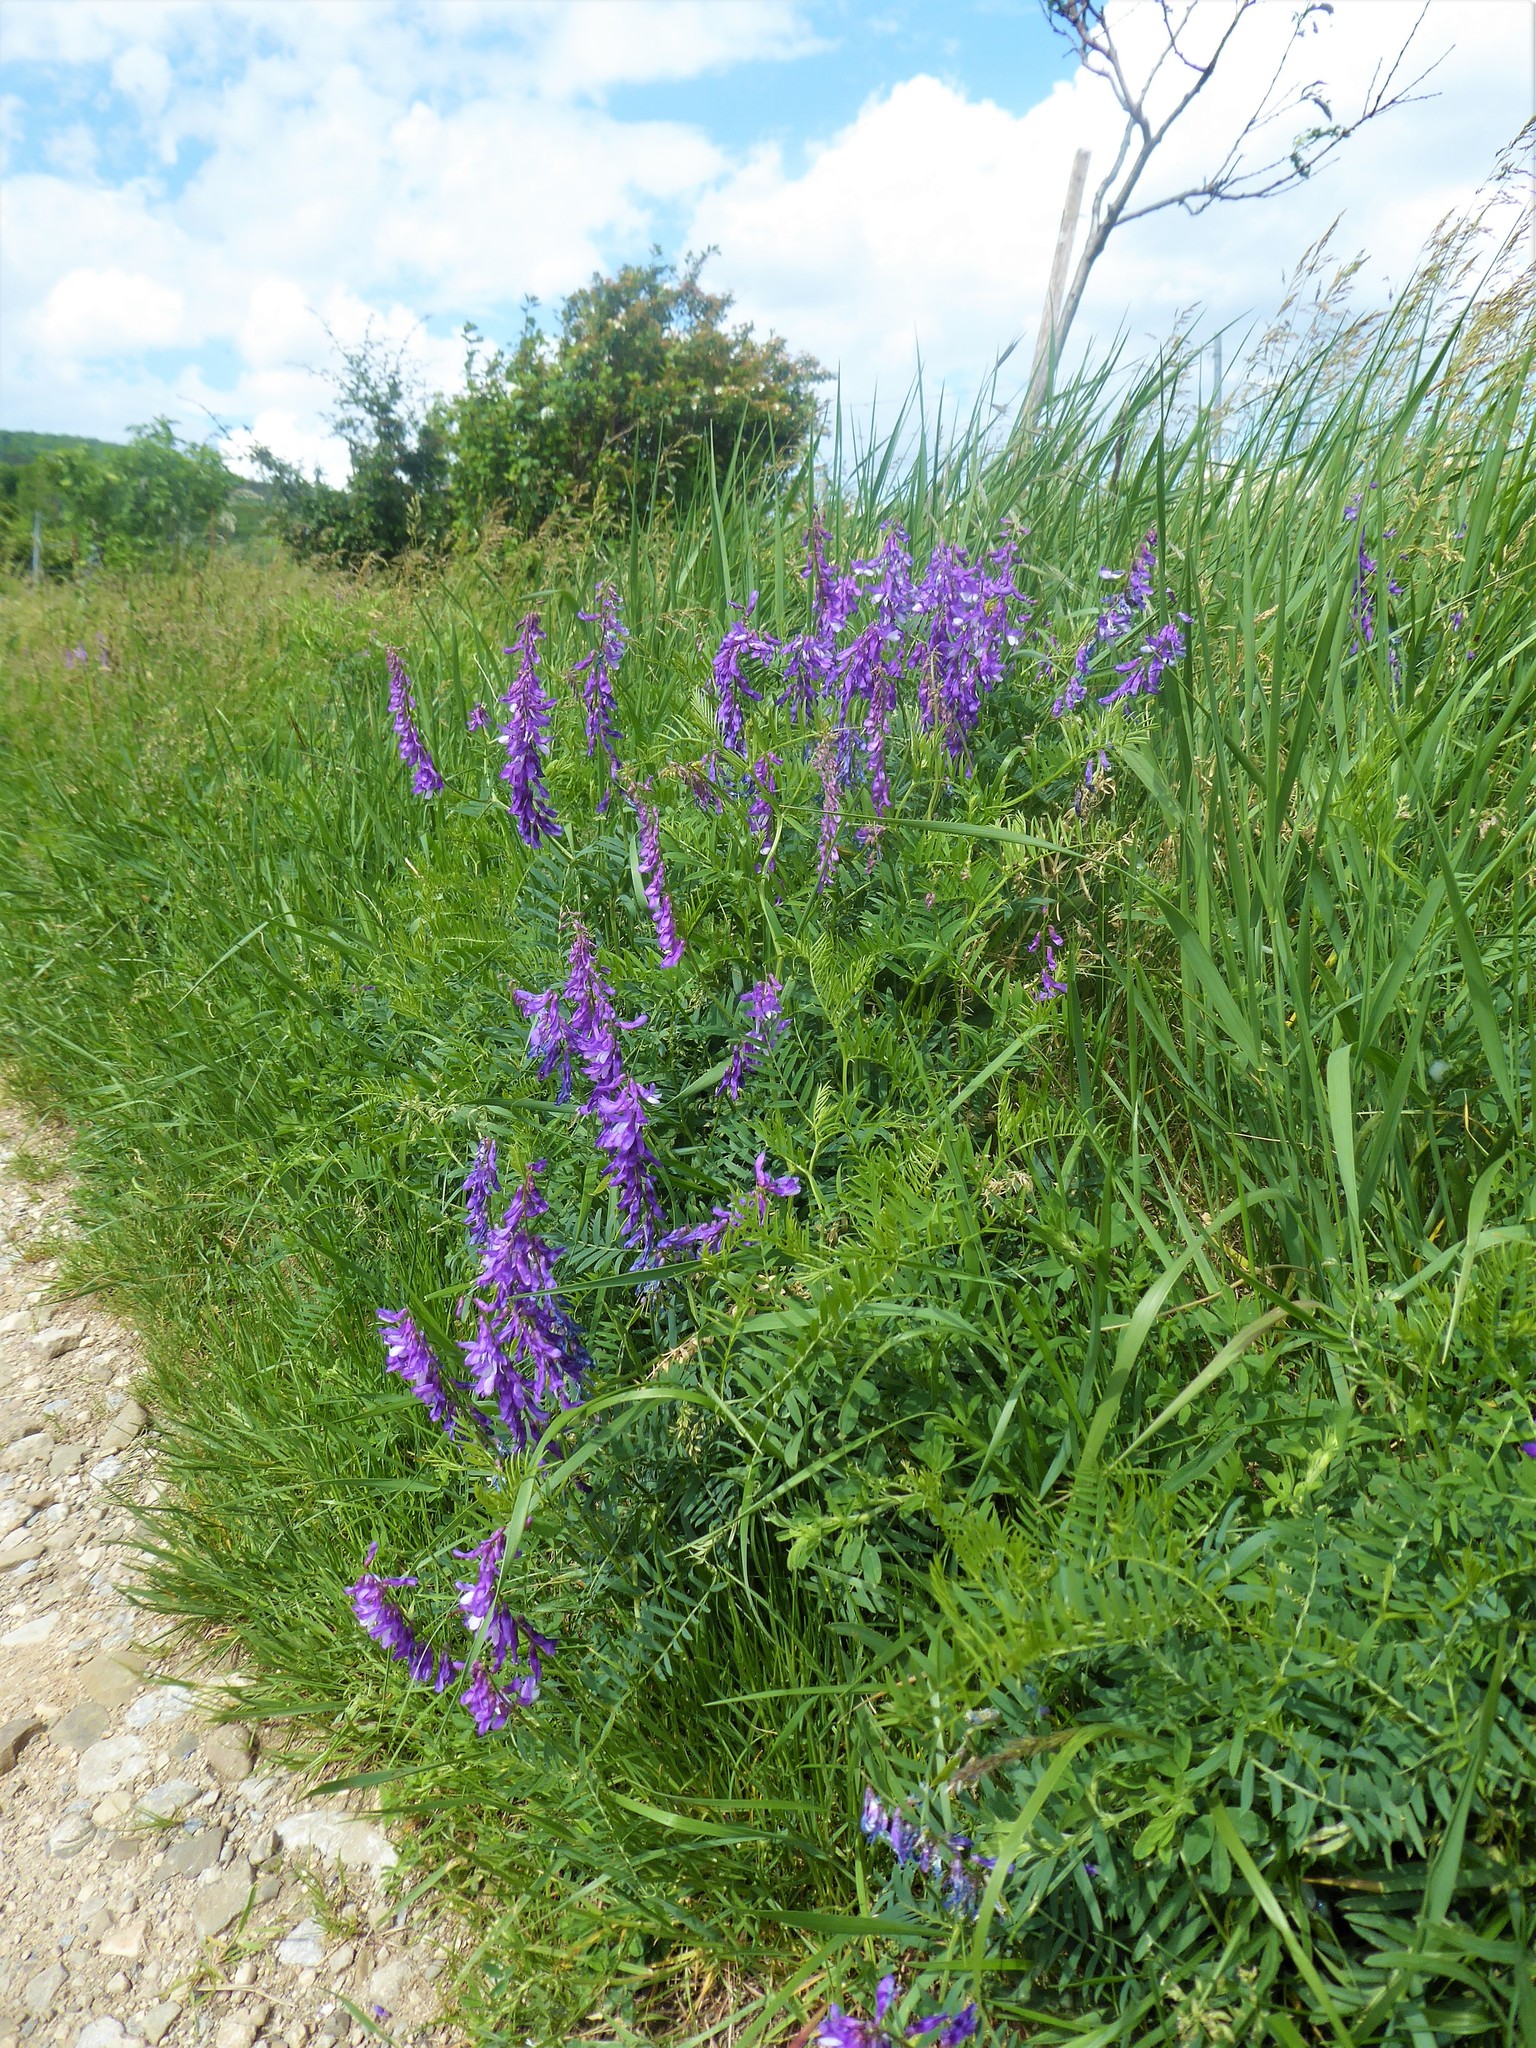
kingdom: Plantae
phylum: Tracheophyta
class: Magnoliopsida
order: Fabales
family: Fabaceae
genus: Vicia
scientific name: Vicia tenuifolia
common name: Fine-leaved vetch
